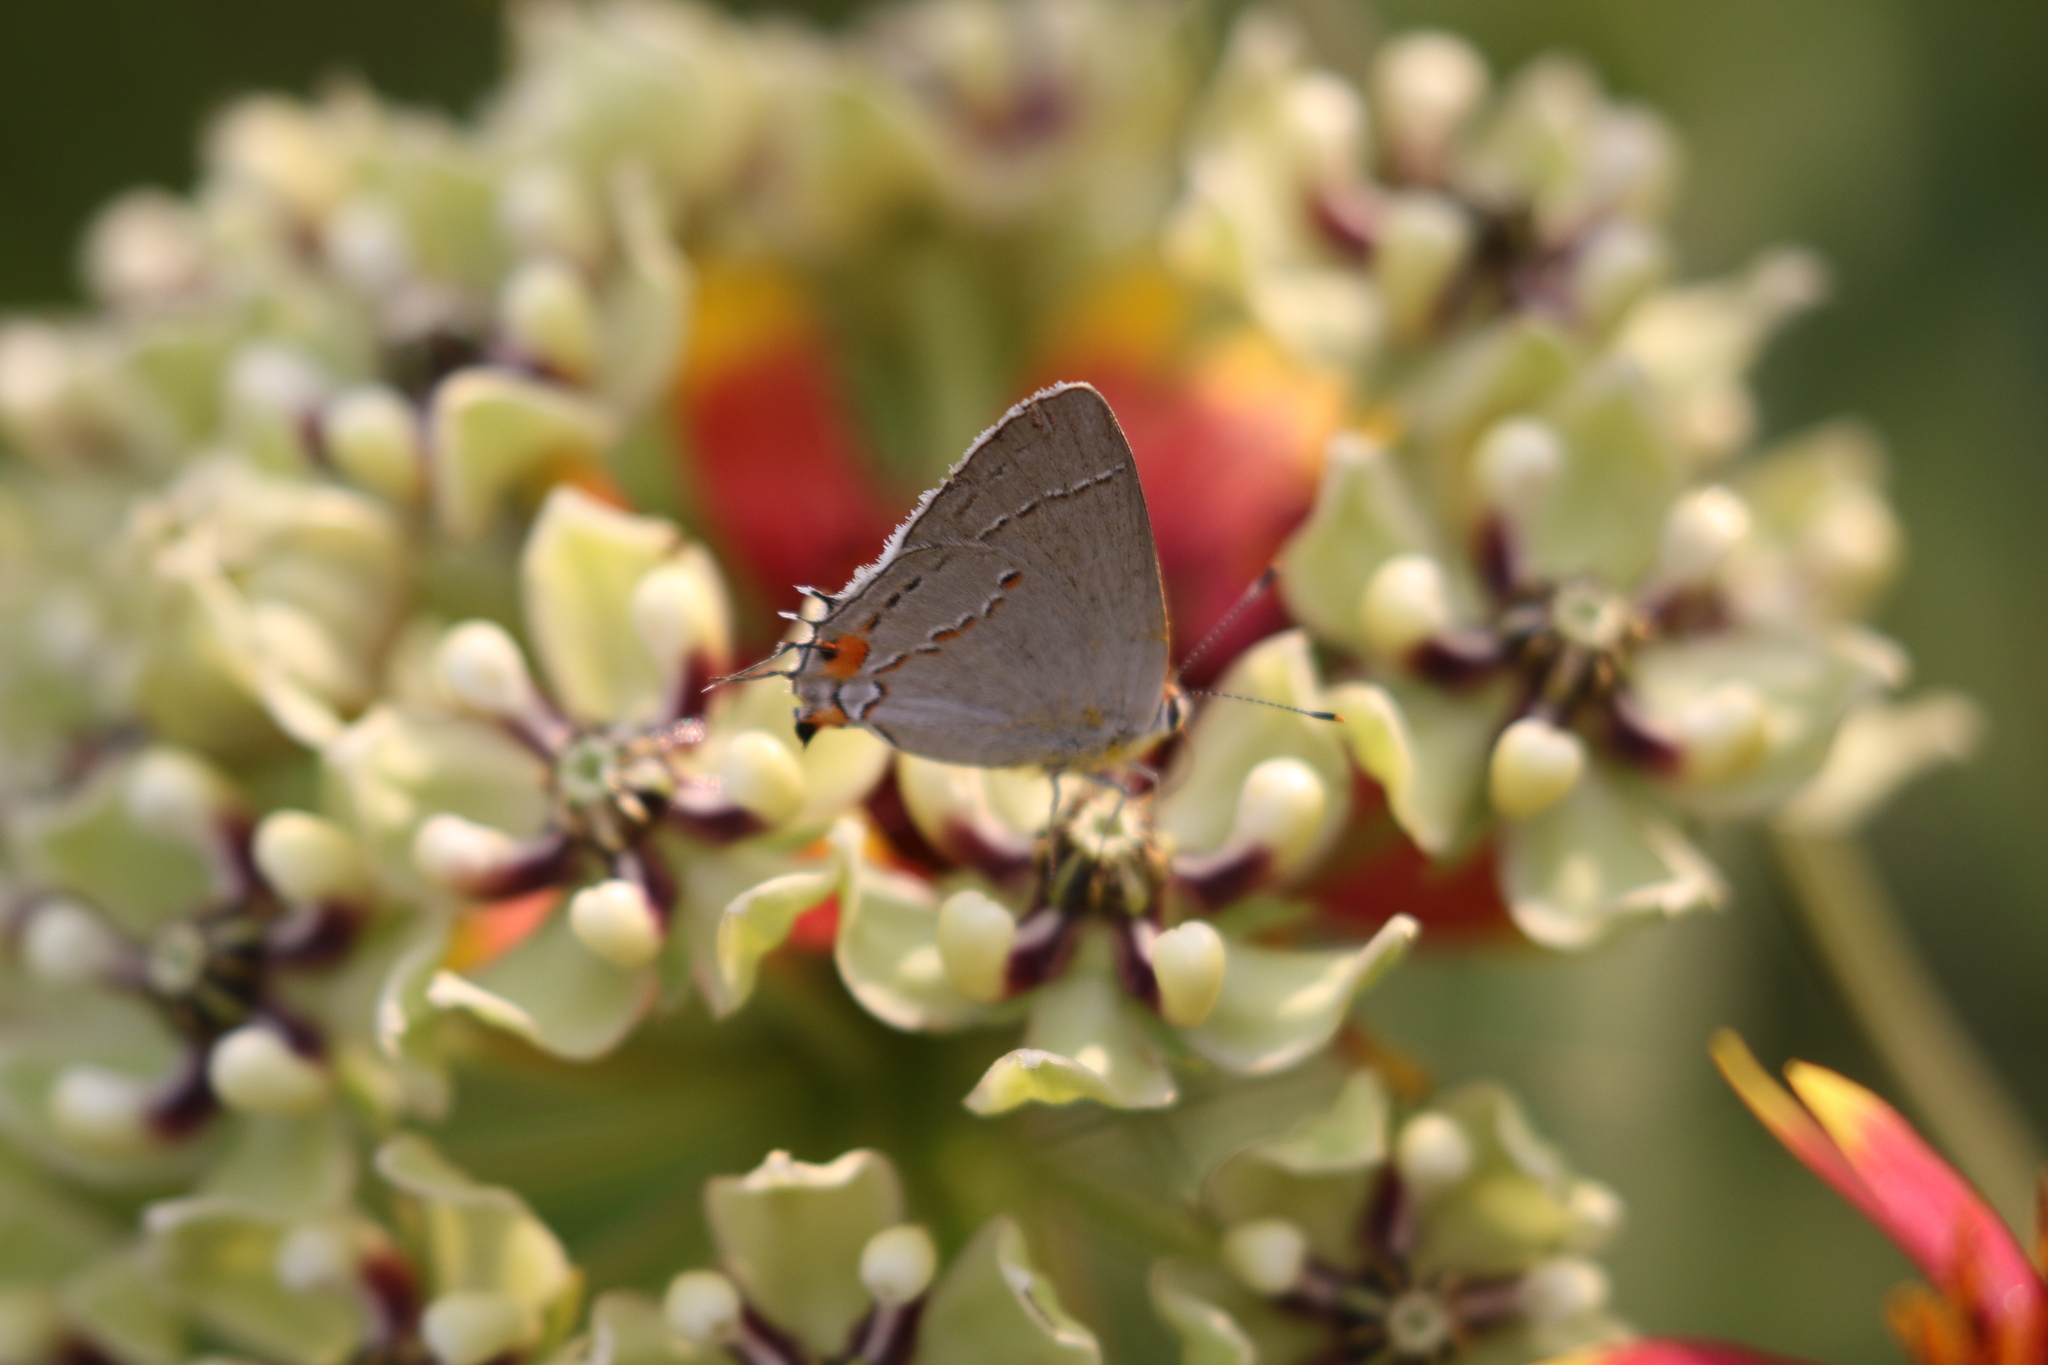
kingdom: Animalia
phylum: Arthropoda
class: Insecta
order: Lepidoptera
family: Lycaenidae
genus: Strymon
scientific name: Strymon melinus
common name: Gray hairstreak
